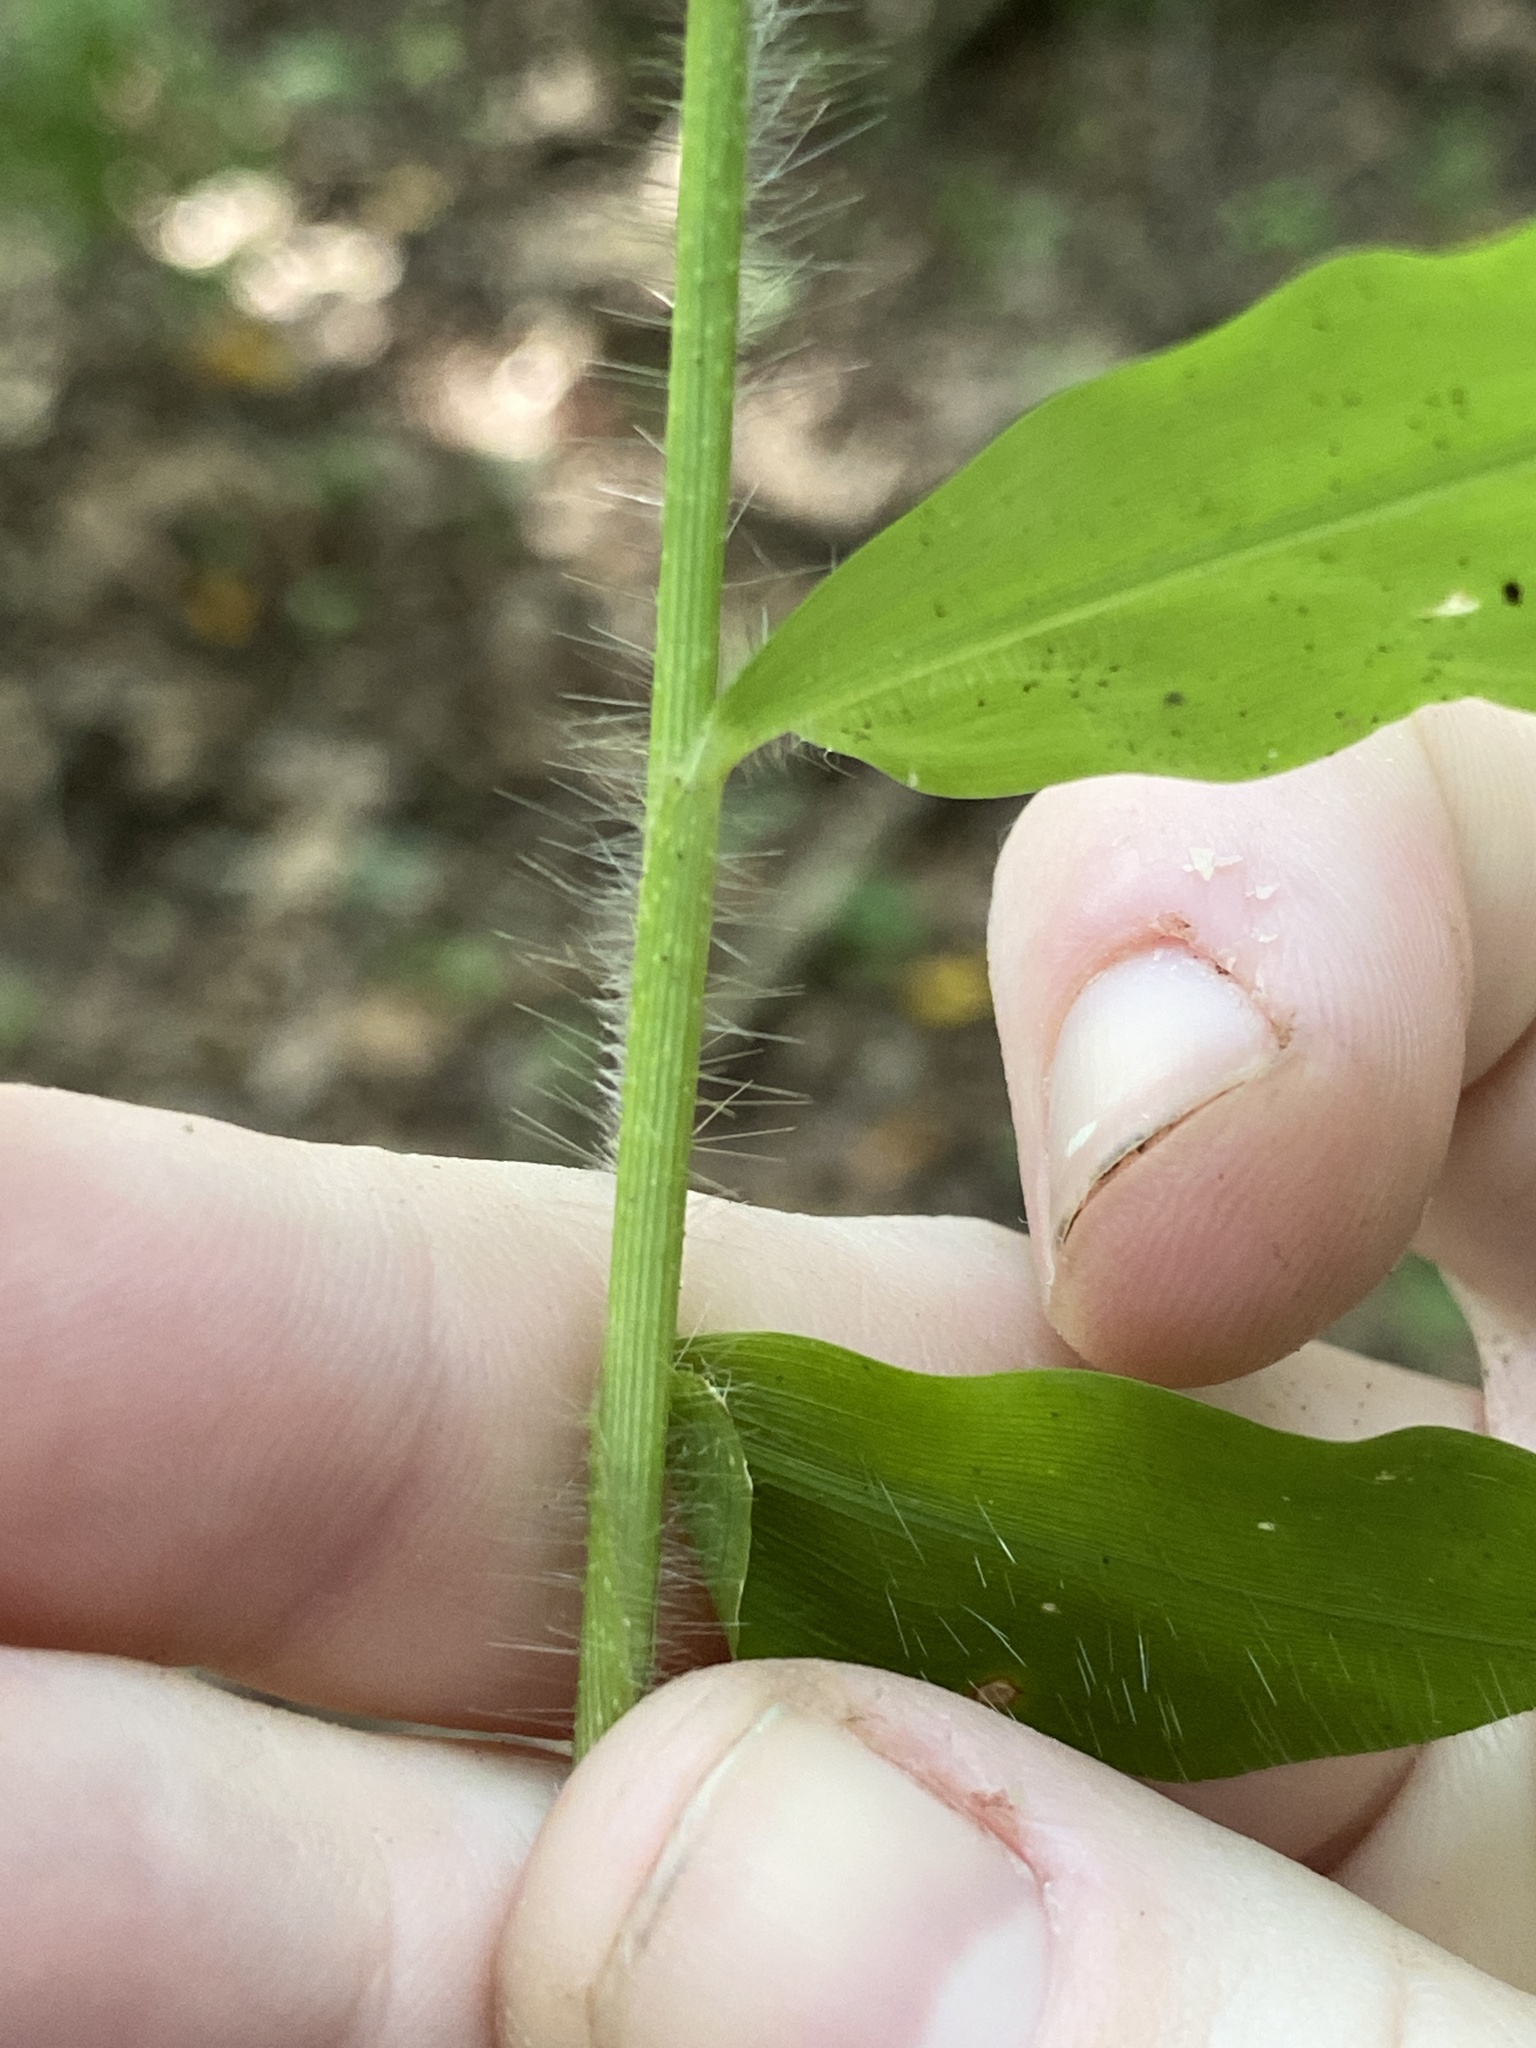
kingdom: Plantae
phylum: Tracheophyta
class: Liliopsida
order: Poales
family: Poaceae
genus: Oplismenus
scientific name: Oplismenus undulatifolius
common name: Wavyleaf basketgrass
